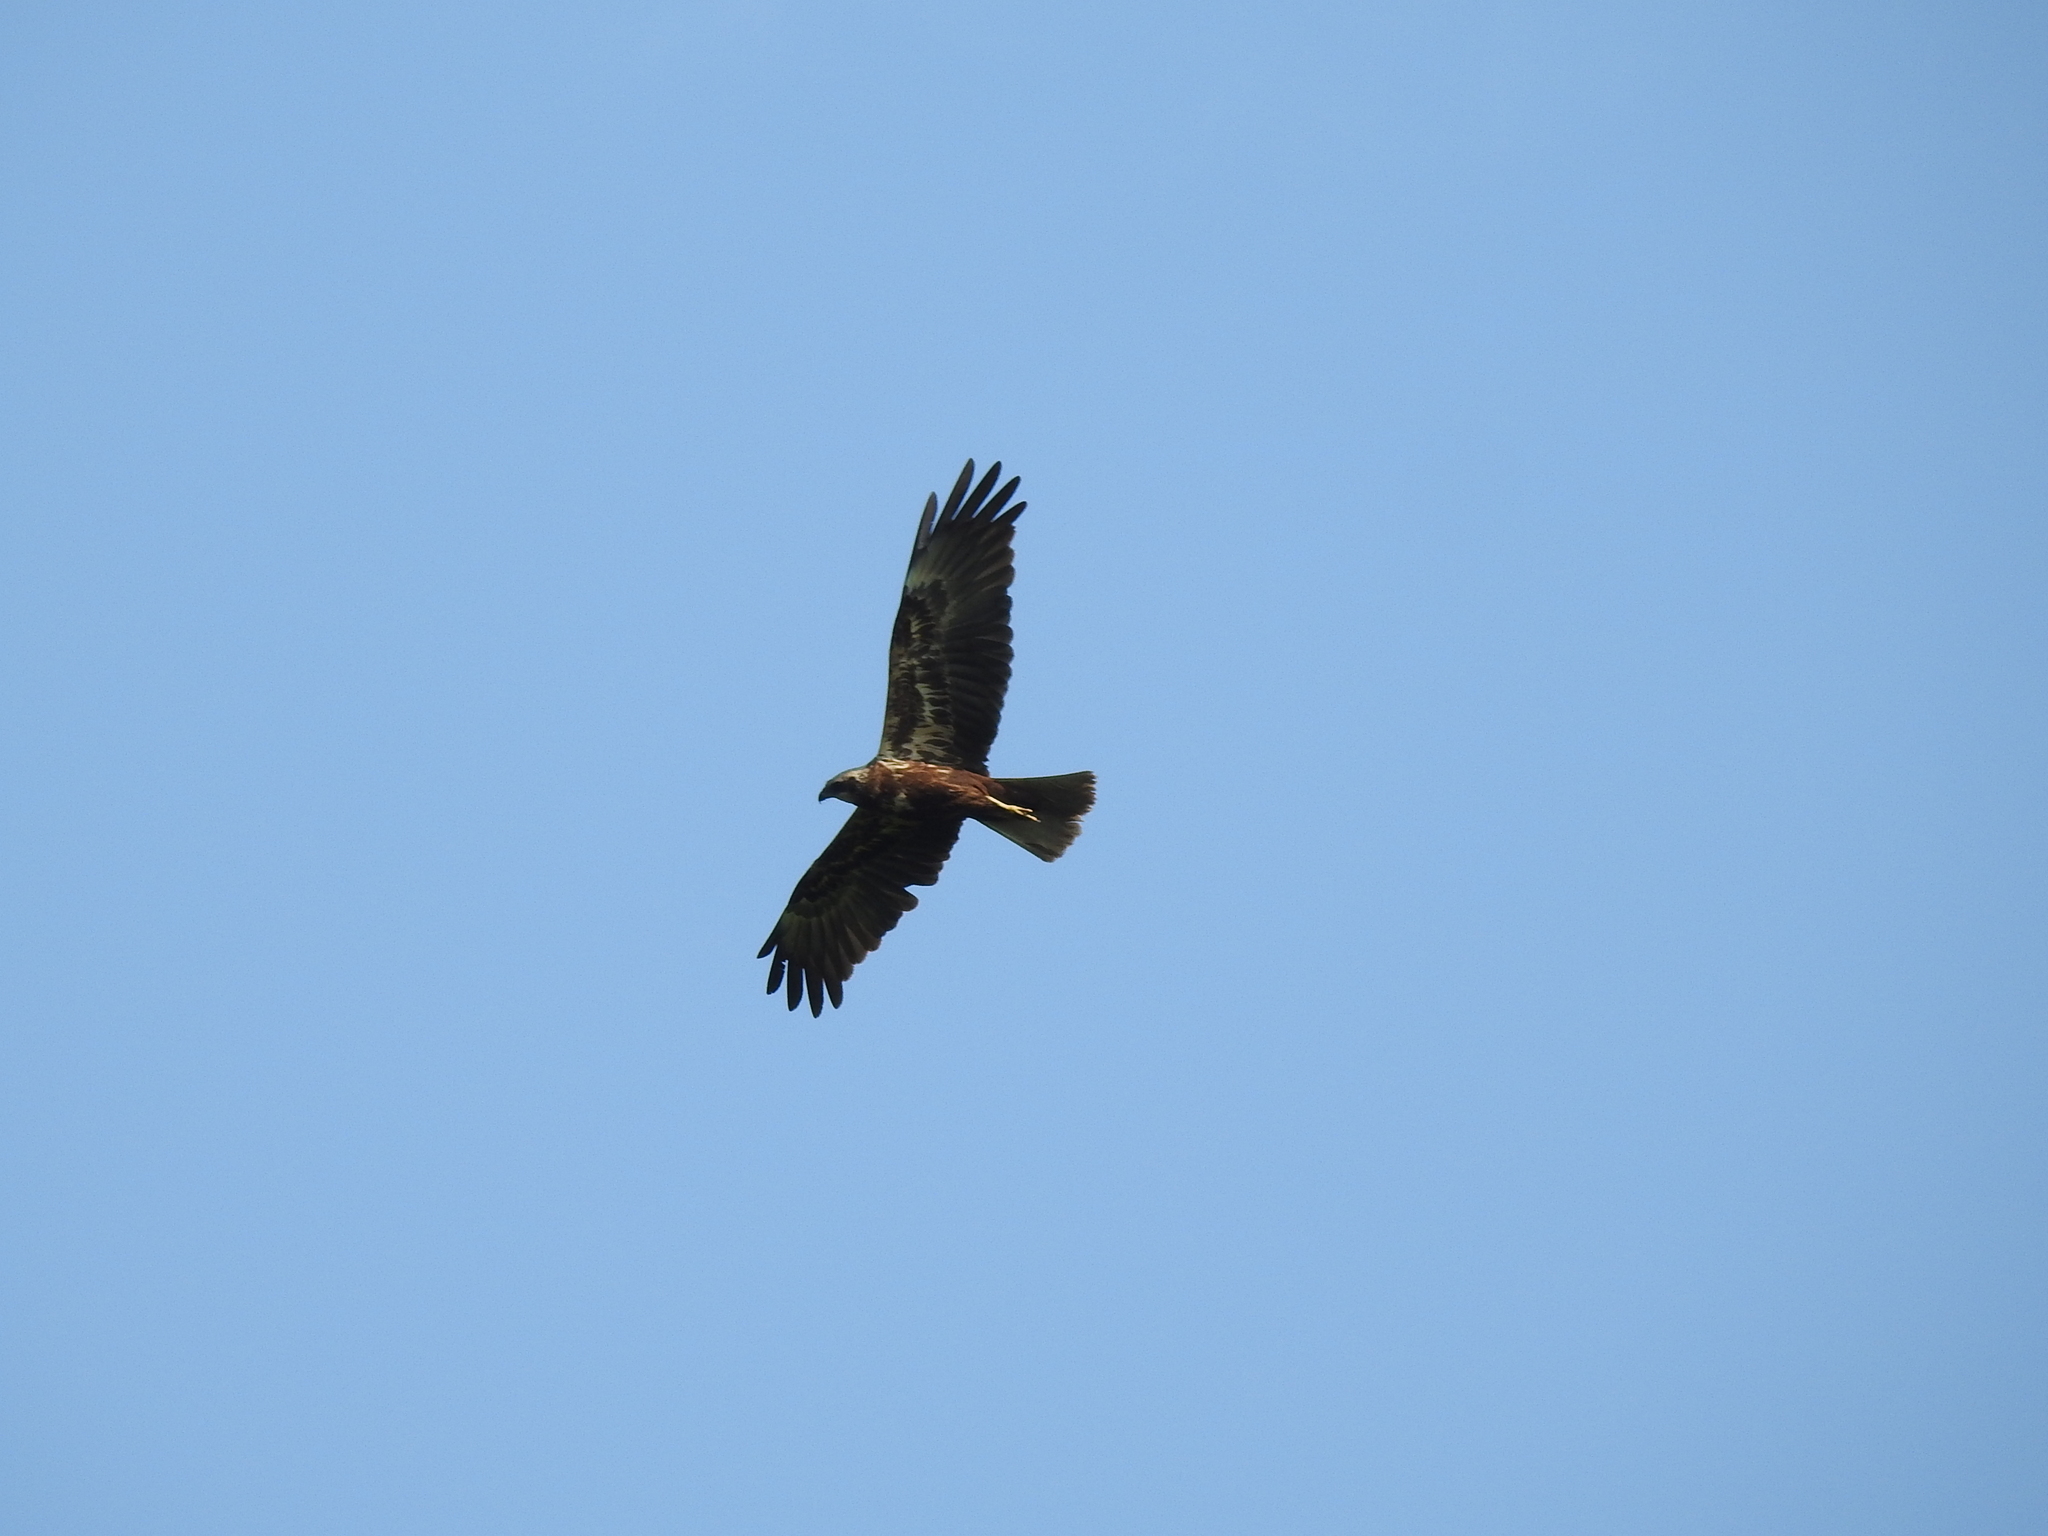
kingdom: Animalia
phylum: Chordata
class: Aves
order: Accipitriformes
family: Accipitridae
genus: Circus
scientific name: Circus aeruginosus
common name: Western marsh harrier
